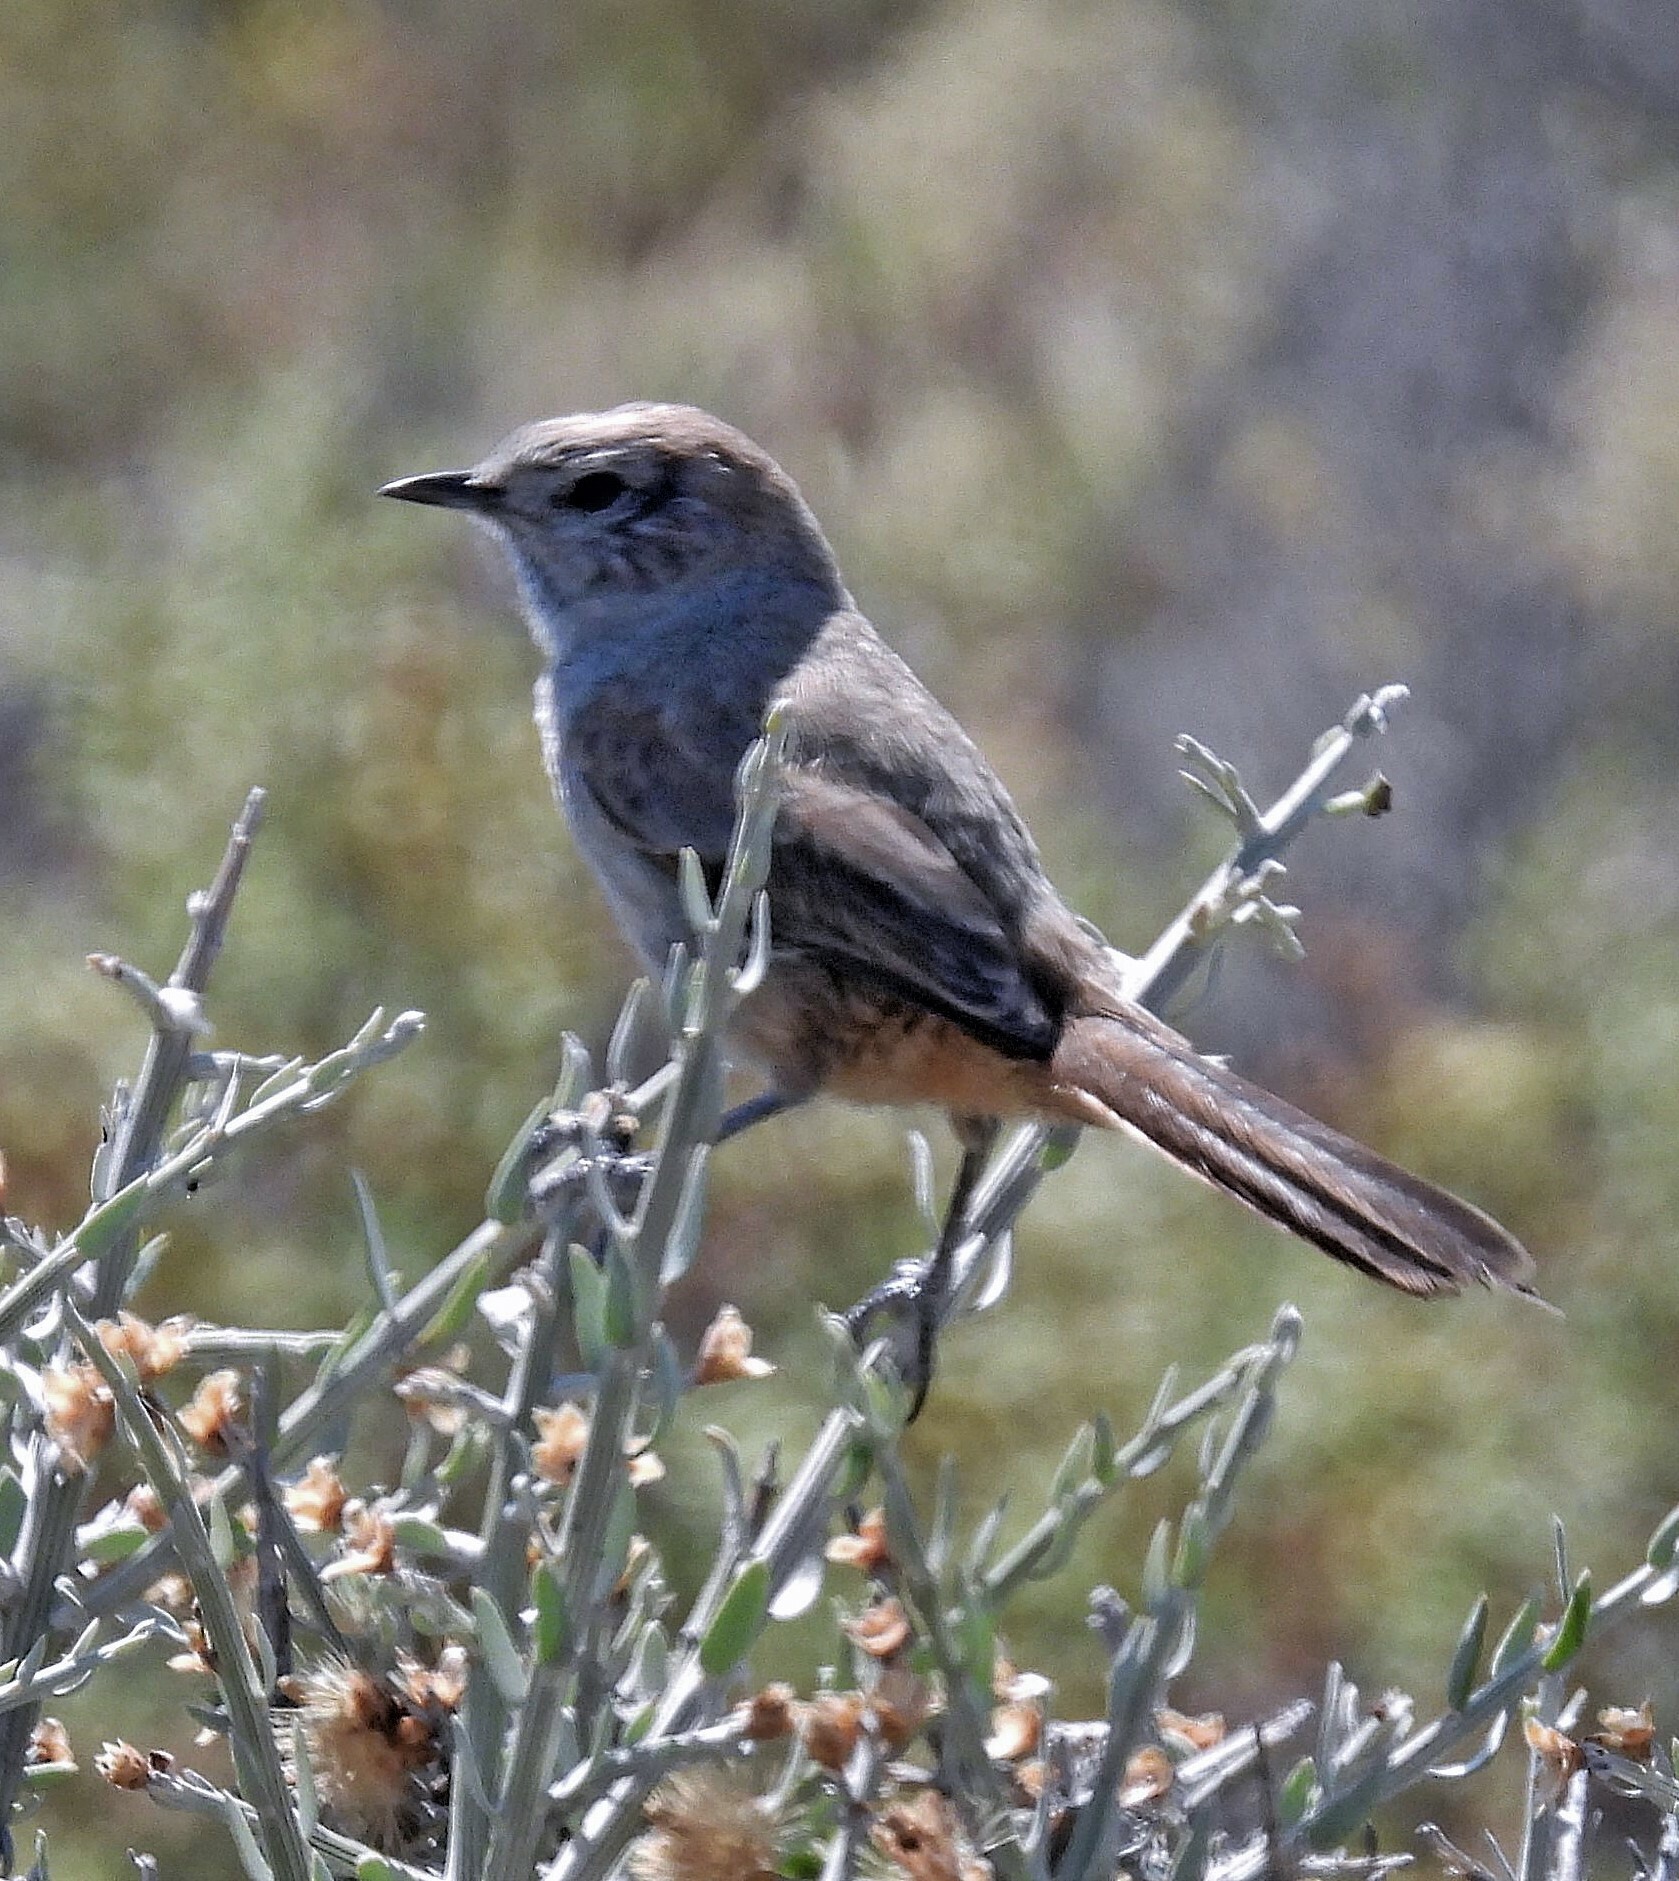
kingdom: Animalia
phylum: Chordata
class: Aves
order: Passeriformes
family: Furnariidae
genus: Asthenes
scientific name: Asthenes patagonica
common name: Patagonian canastero
